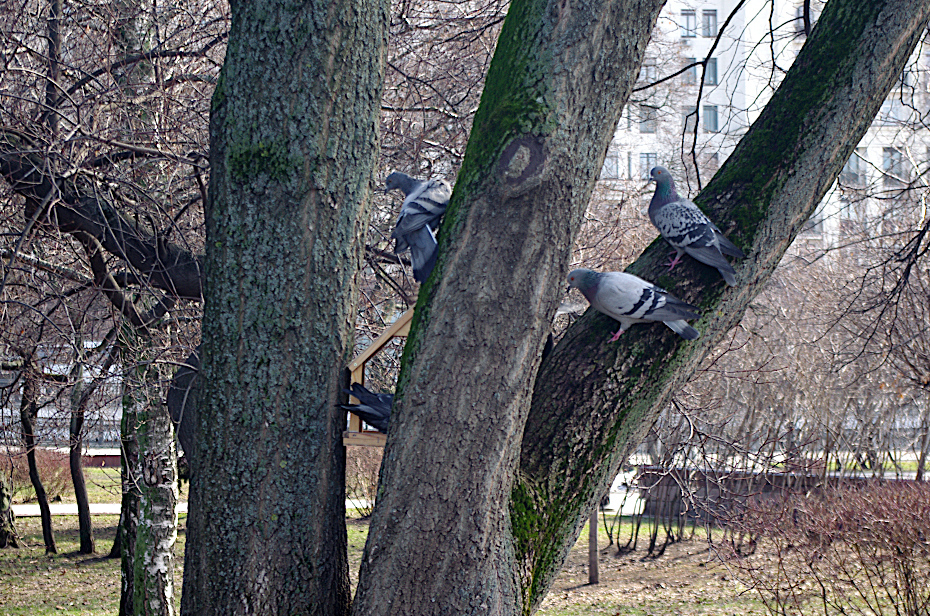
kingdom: Animalia
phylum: Chordata
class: Aves
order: Columbiformes
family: Columbidae
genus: Columba
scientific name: Columba livia
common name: Rock pigeon
